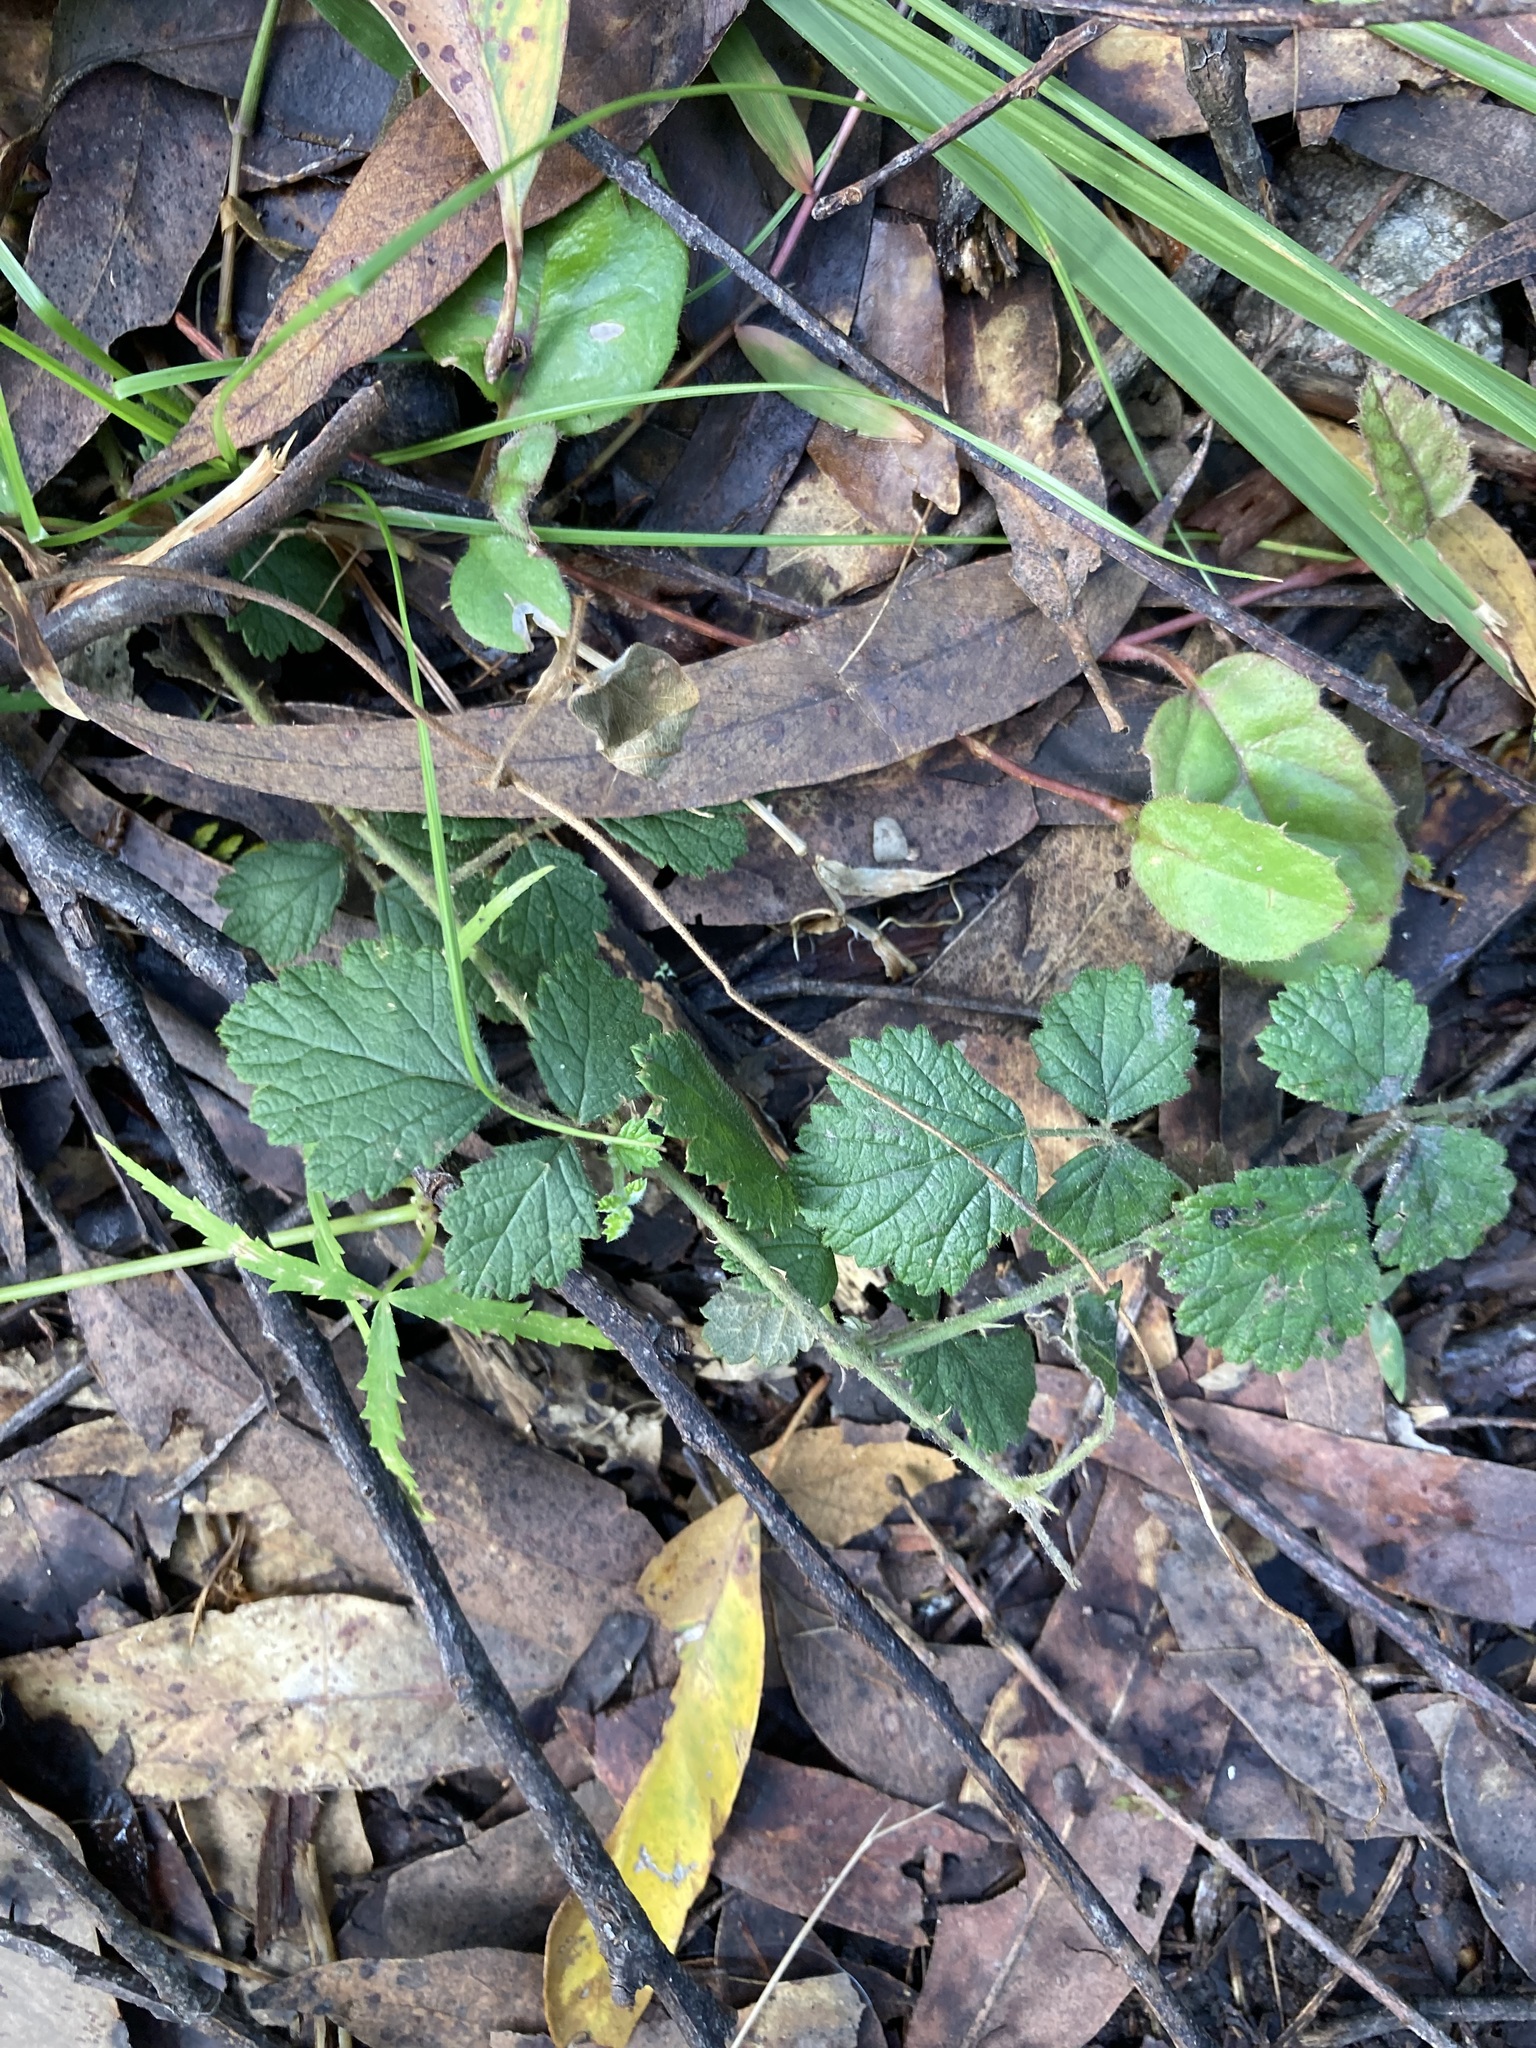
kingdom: Plantae
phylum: Tracheophyta
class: Magnoliopsida
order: Rosales
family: Rosaceae
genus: Rubus
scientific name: Rubus parvifolius
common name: Threeleaf blackberry
